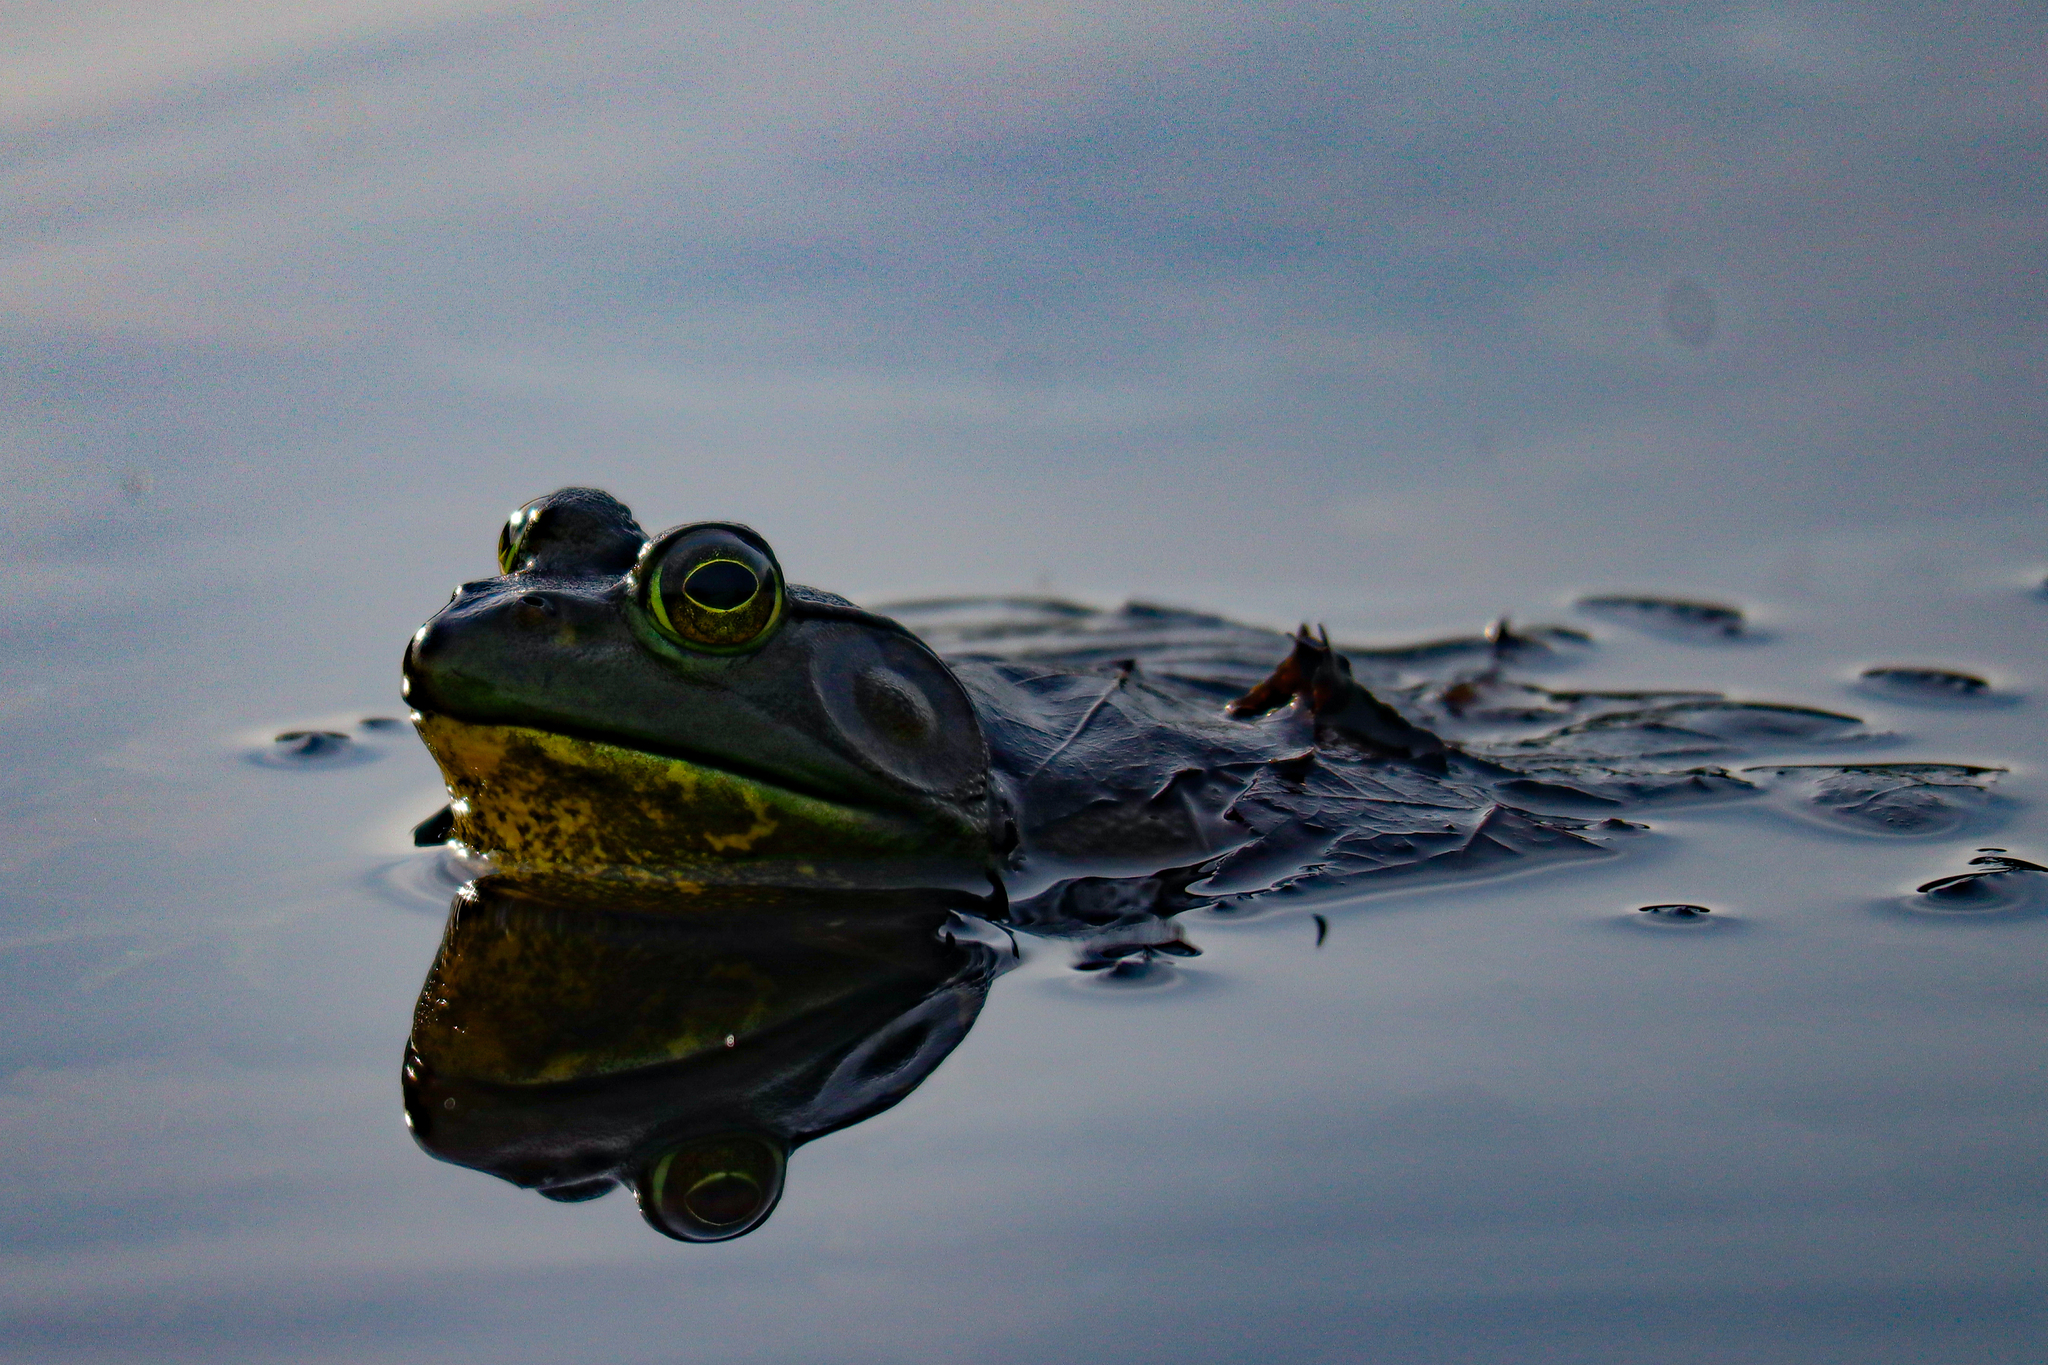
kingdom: Animalia
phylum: Chordata
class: Amphibia
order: Anura
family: Ranidae
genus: Lithobates
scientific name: Lithobates catesbeianus
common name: American bullfrog
